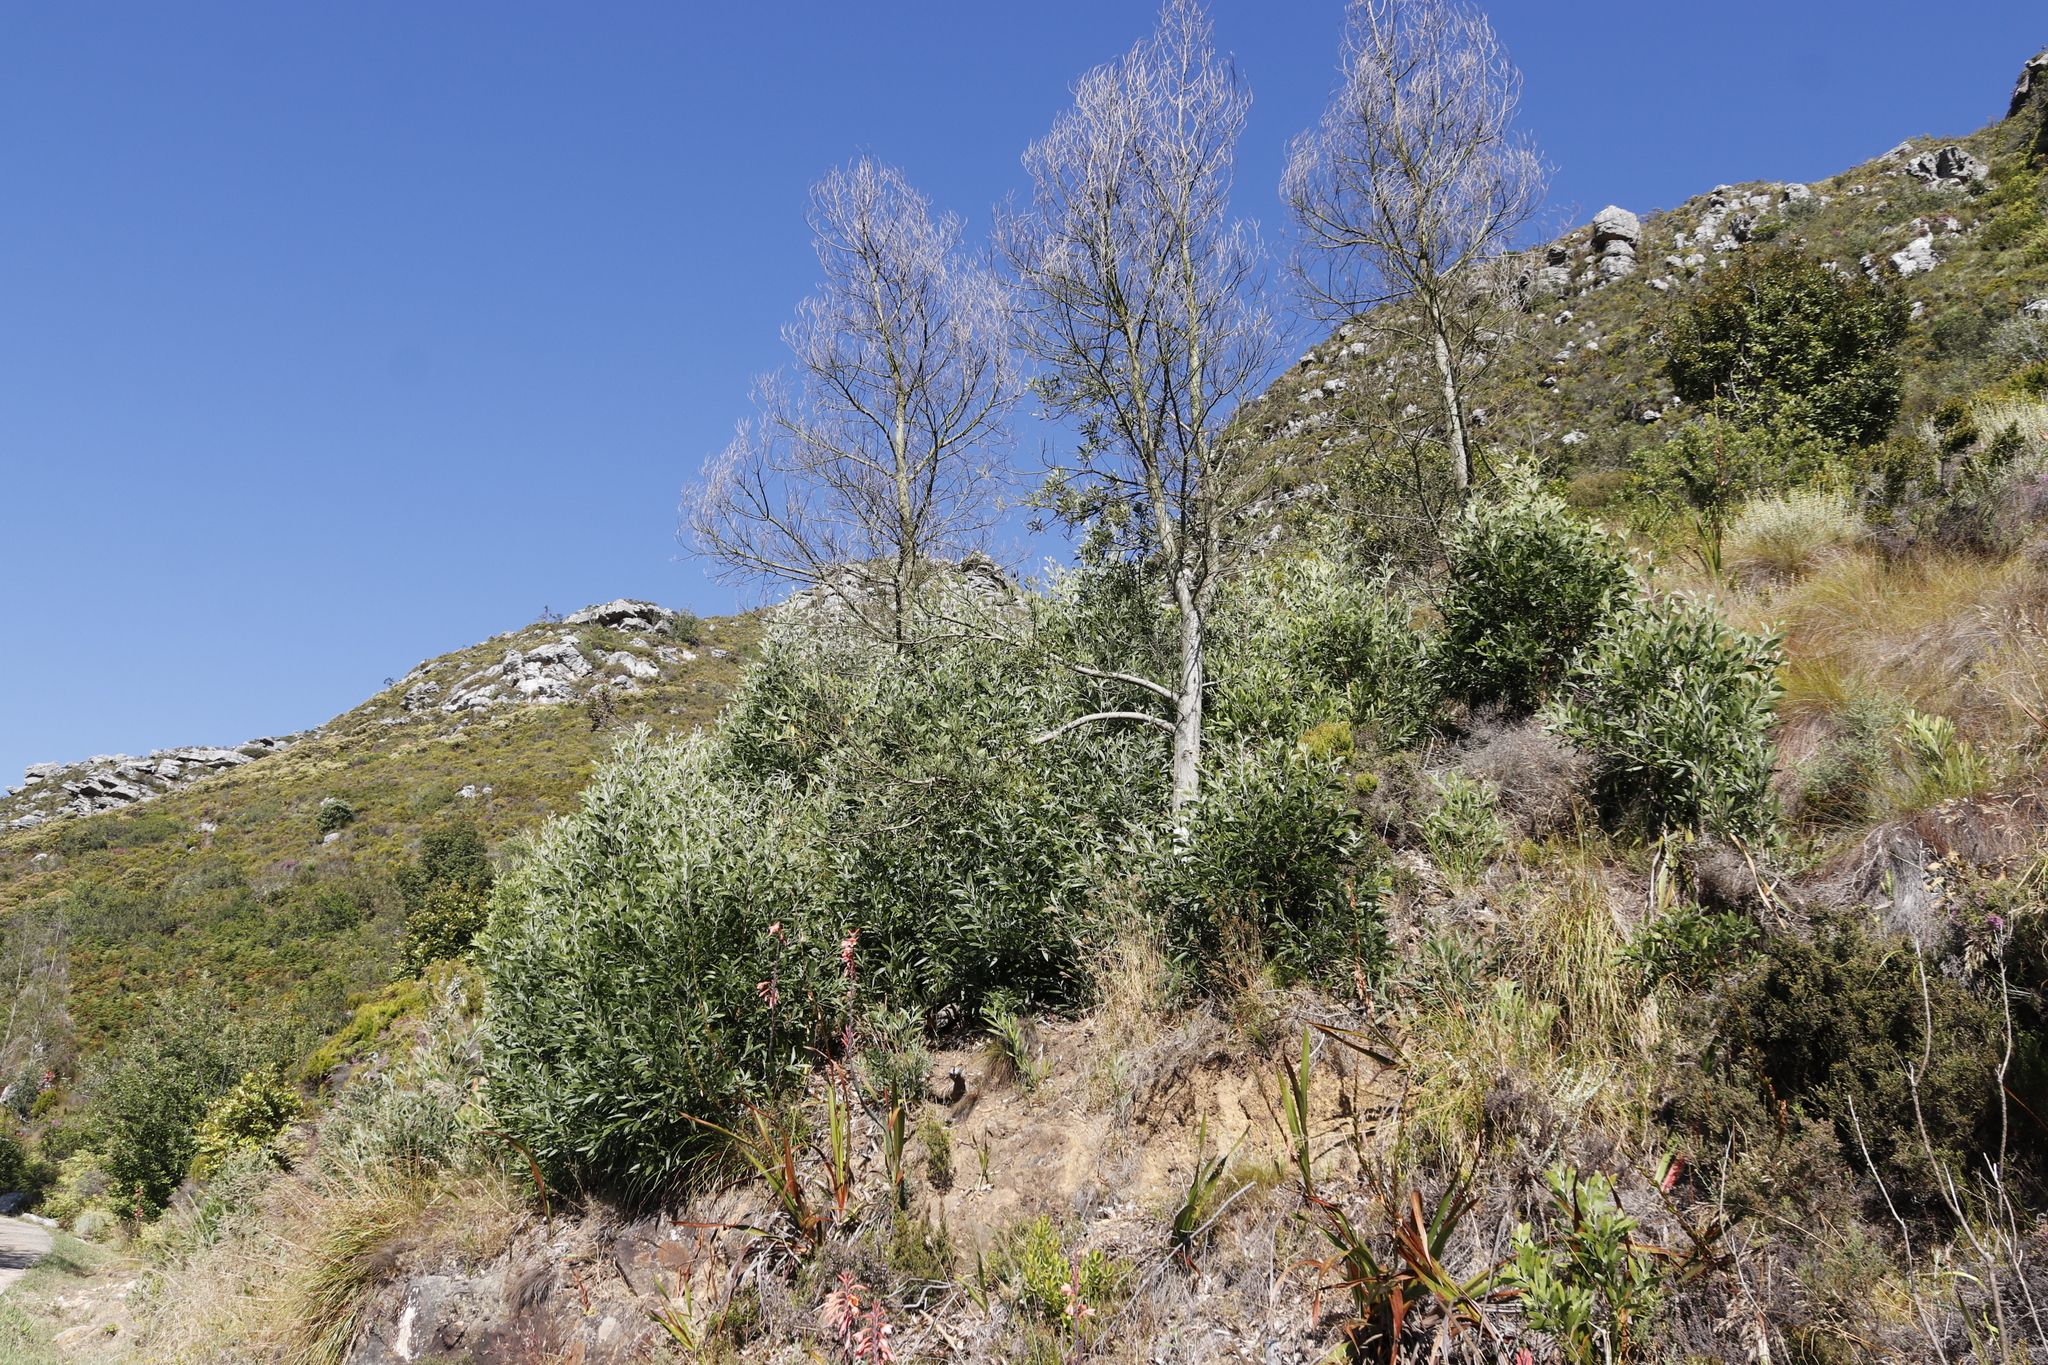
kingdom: Plantae
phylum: Tracheophyta
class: Magnoliopsida
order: Fabales
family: Fabaceae
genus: Acacia
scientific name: Acacia melanoxylon
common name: Blackwood
